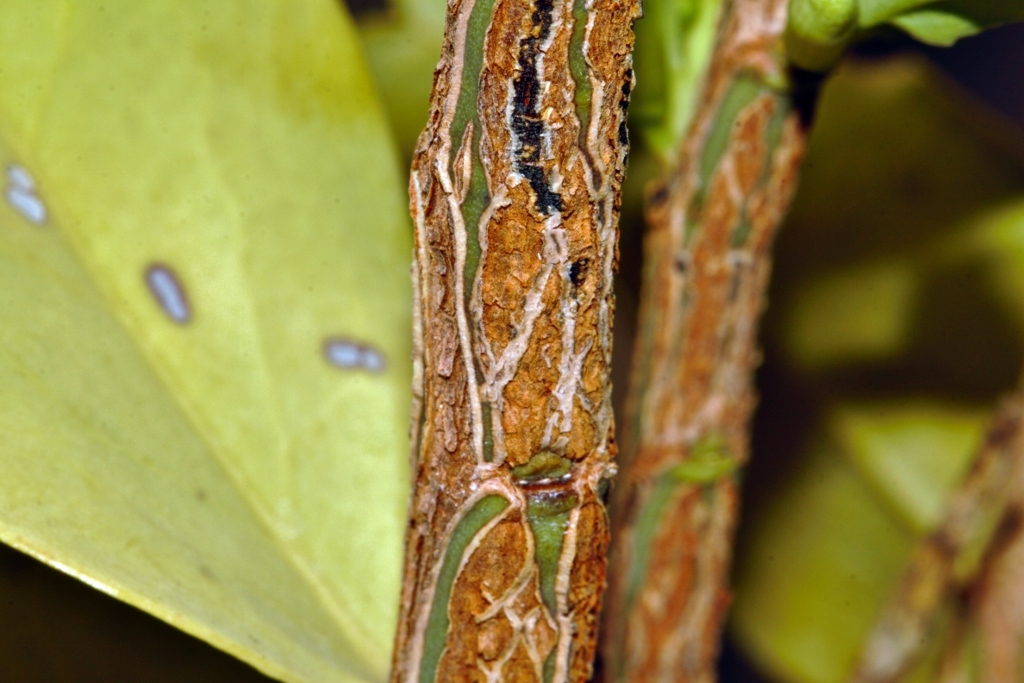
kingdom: Plantae
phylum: Tracheophyta
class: Magnoliopsida
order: Santalales
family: Olacaceae
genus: Olax
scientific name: Olax obtusifolia
